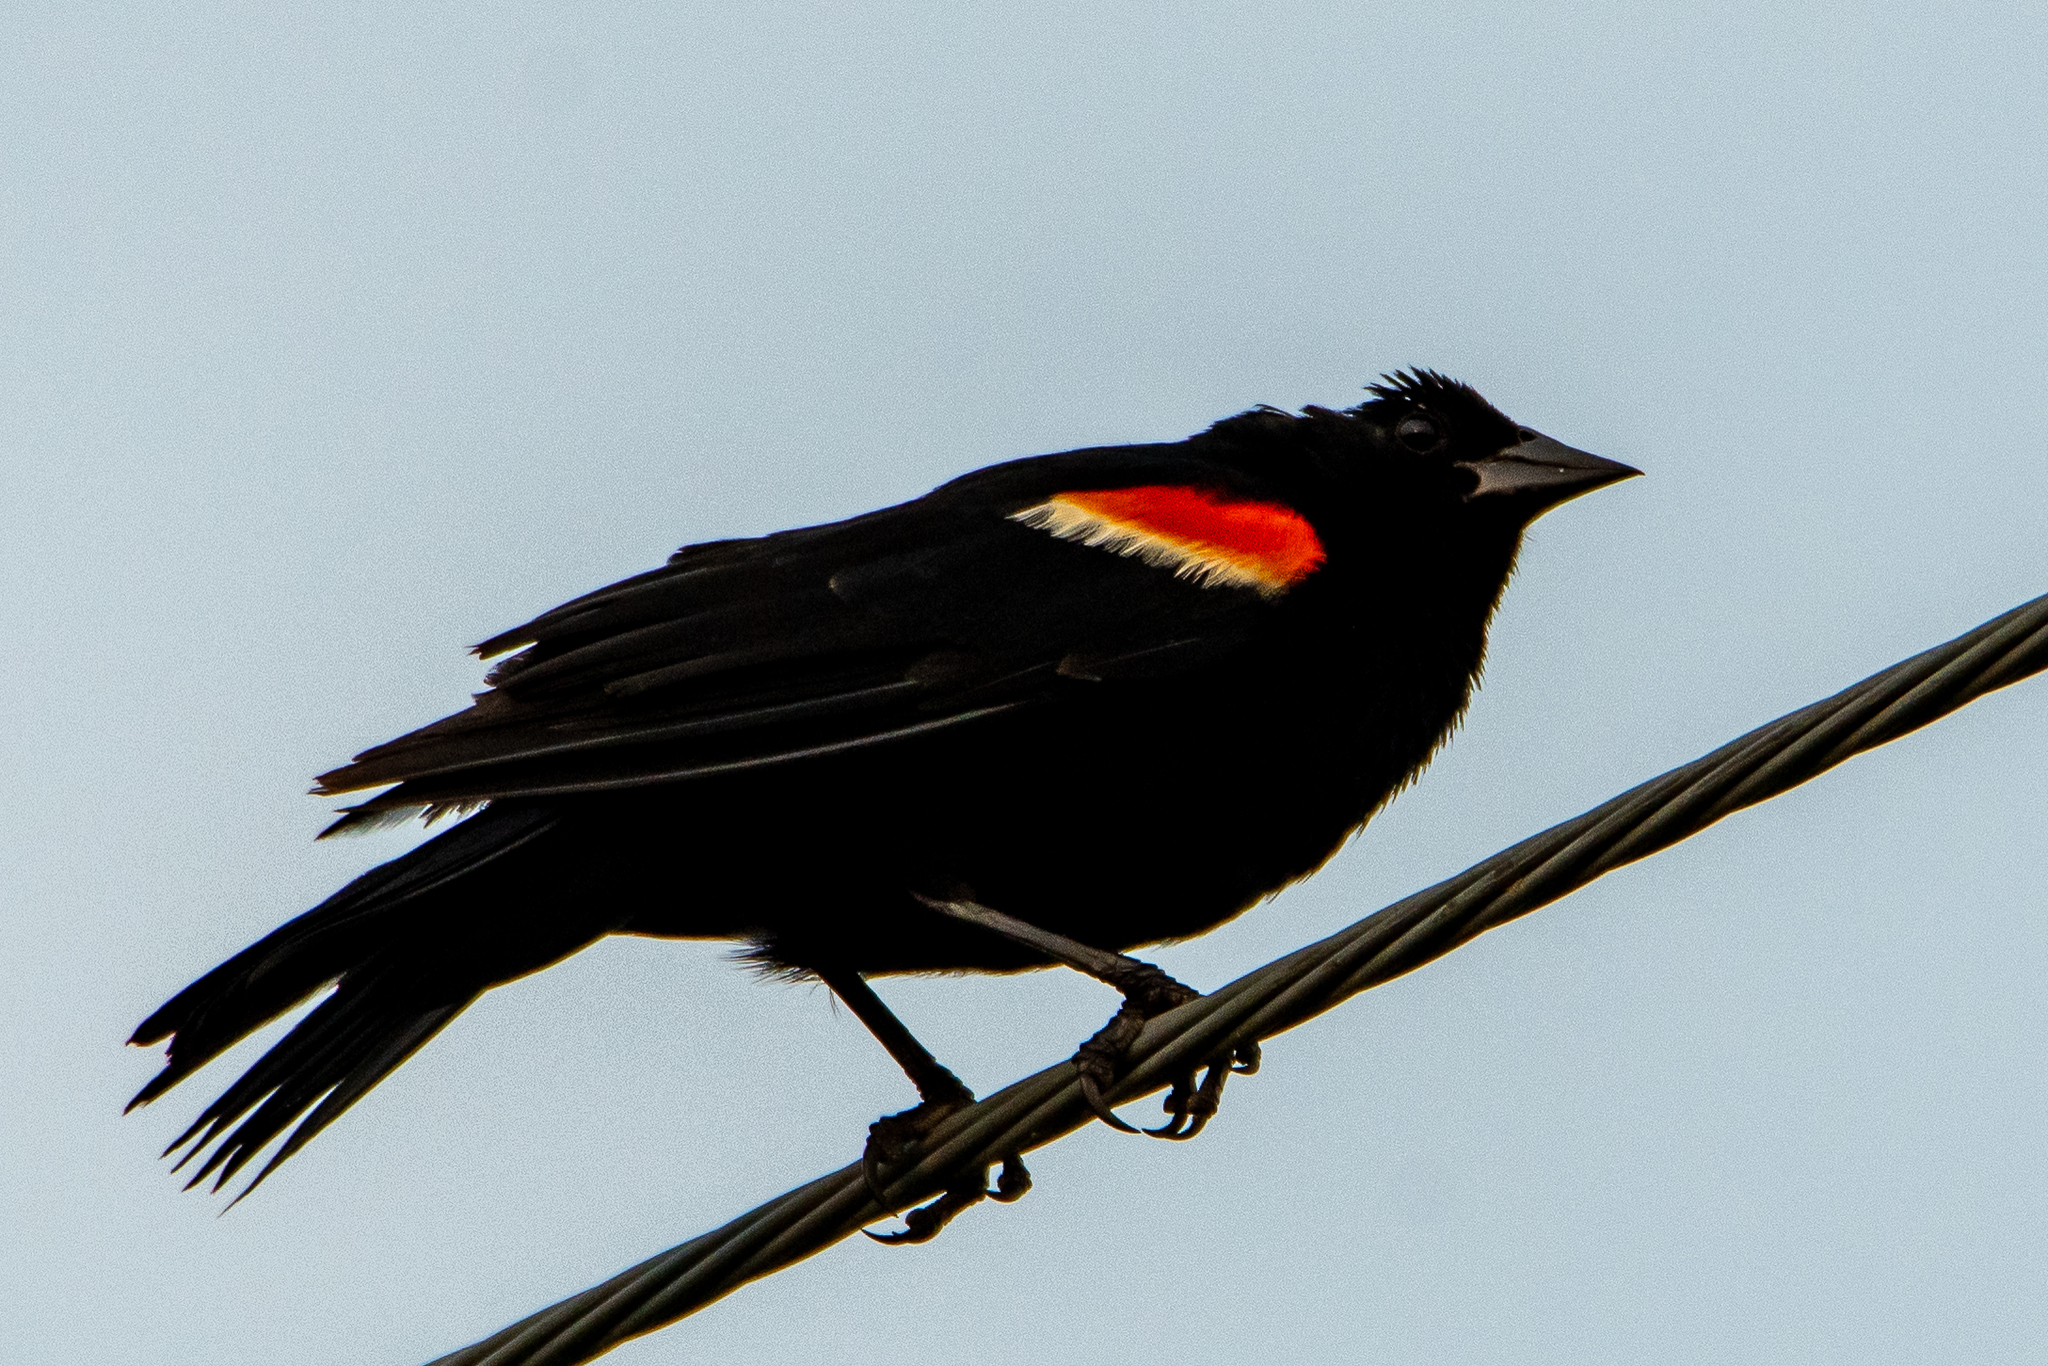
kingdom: Animalia
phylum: Chordata
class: Aves
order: Passeriformes
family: Icteridae
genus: Agelaius
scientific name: Agelaius phoeniceus
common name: Red-winged blackbird
